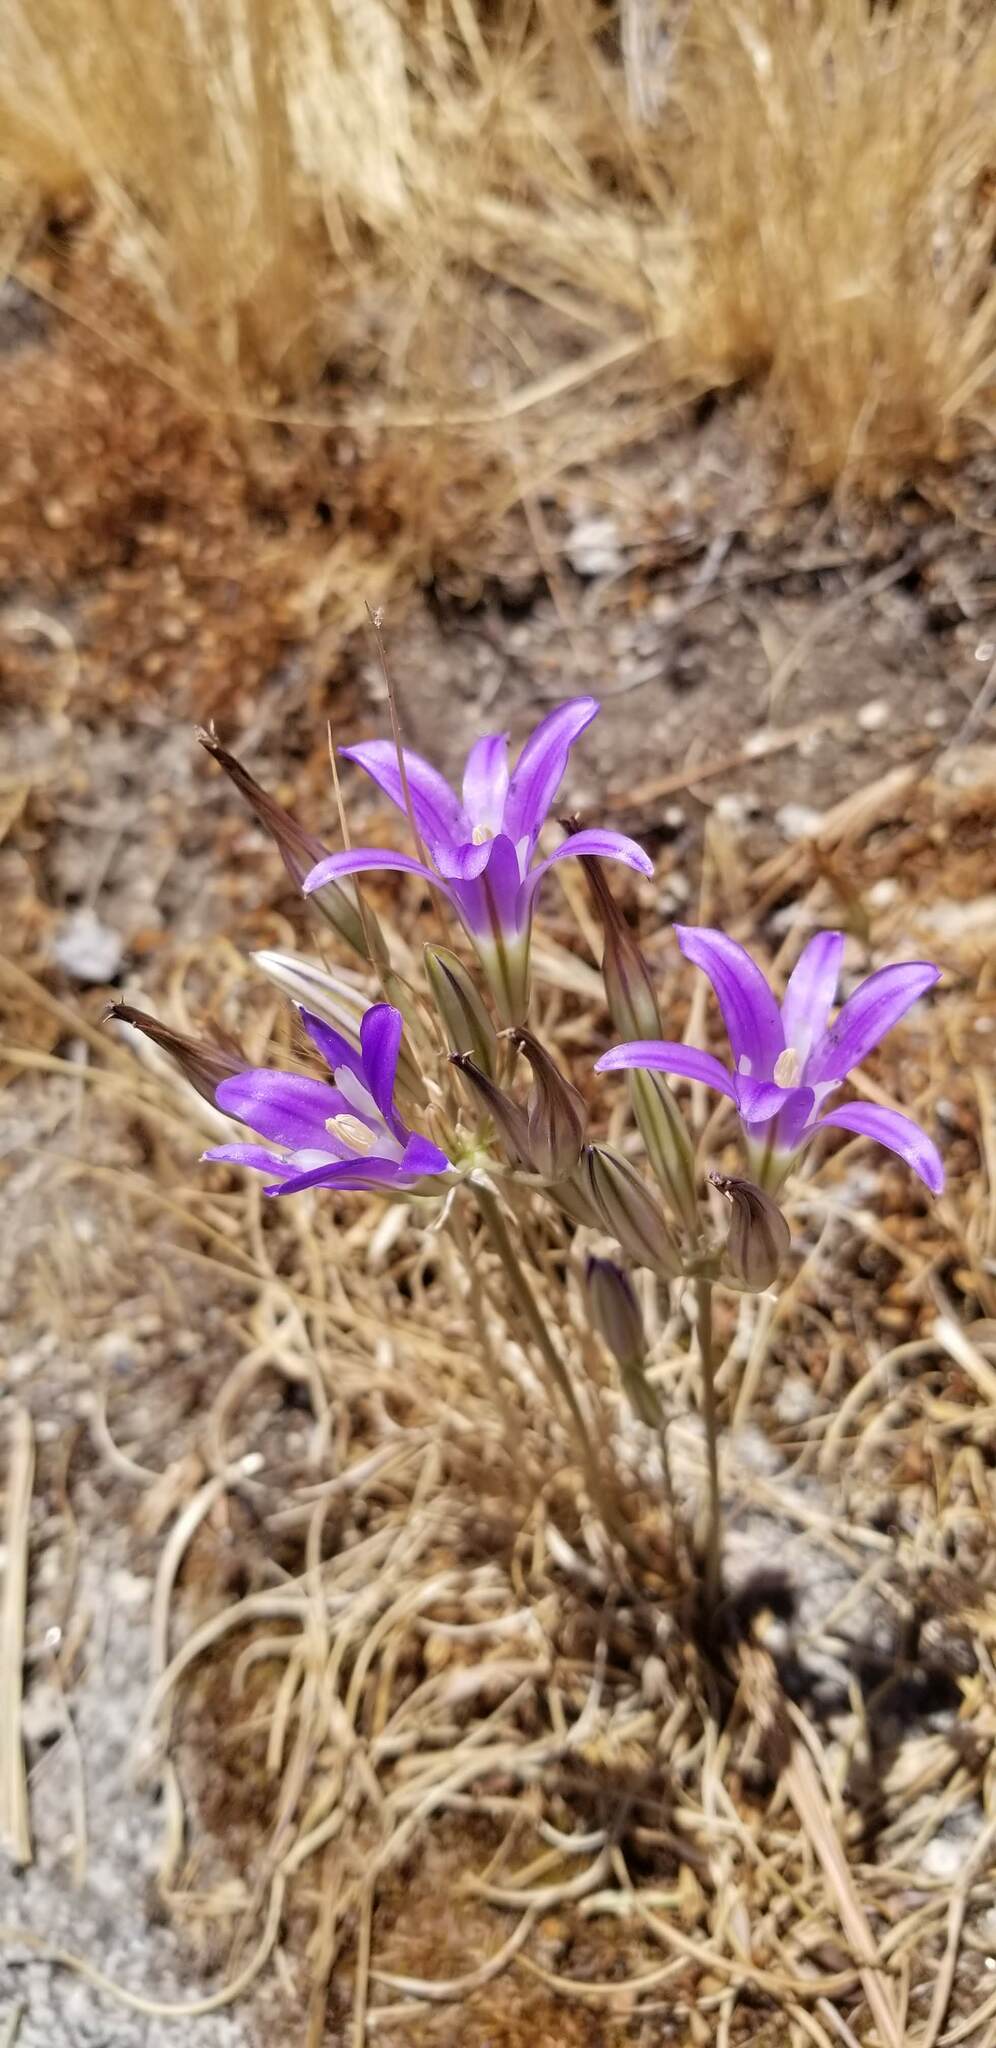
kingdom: Plantae
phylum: Tracheophyta
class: Liliopsida
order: Asparagales
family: Asparagaceae
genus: Brodiaea
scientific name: Brodiaea elegans
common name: Elegant cluster-lily
